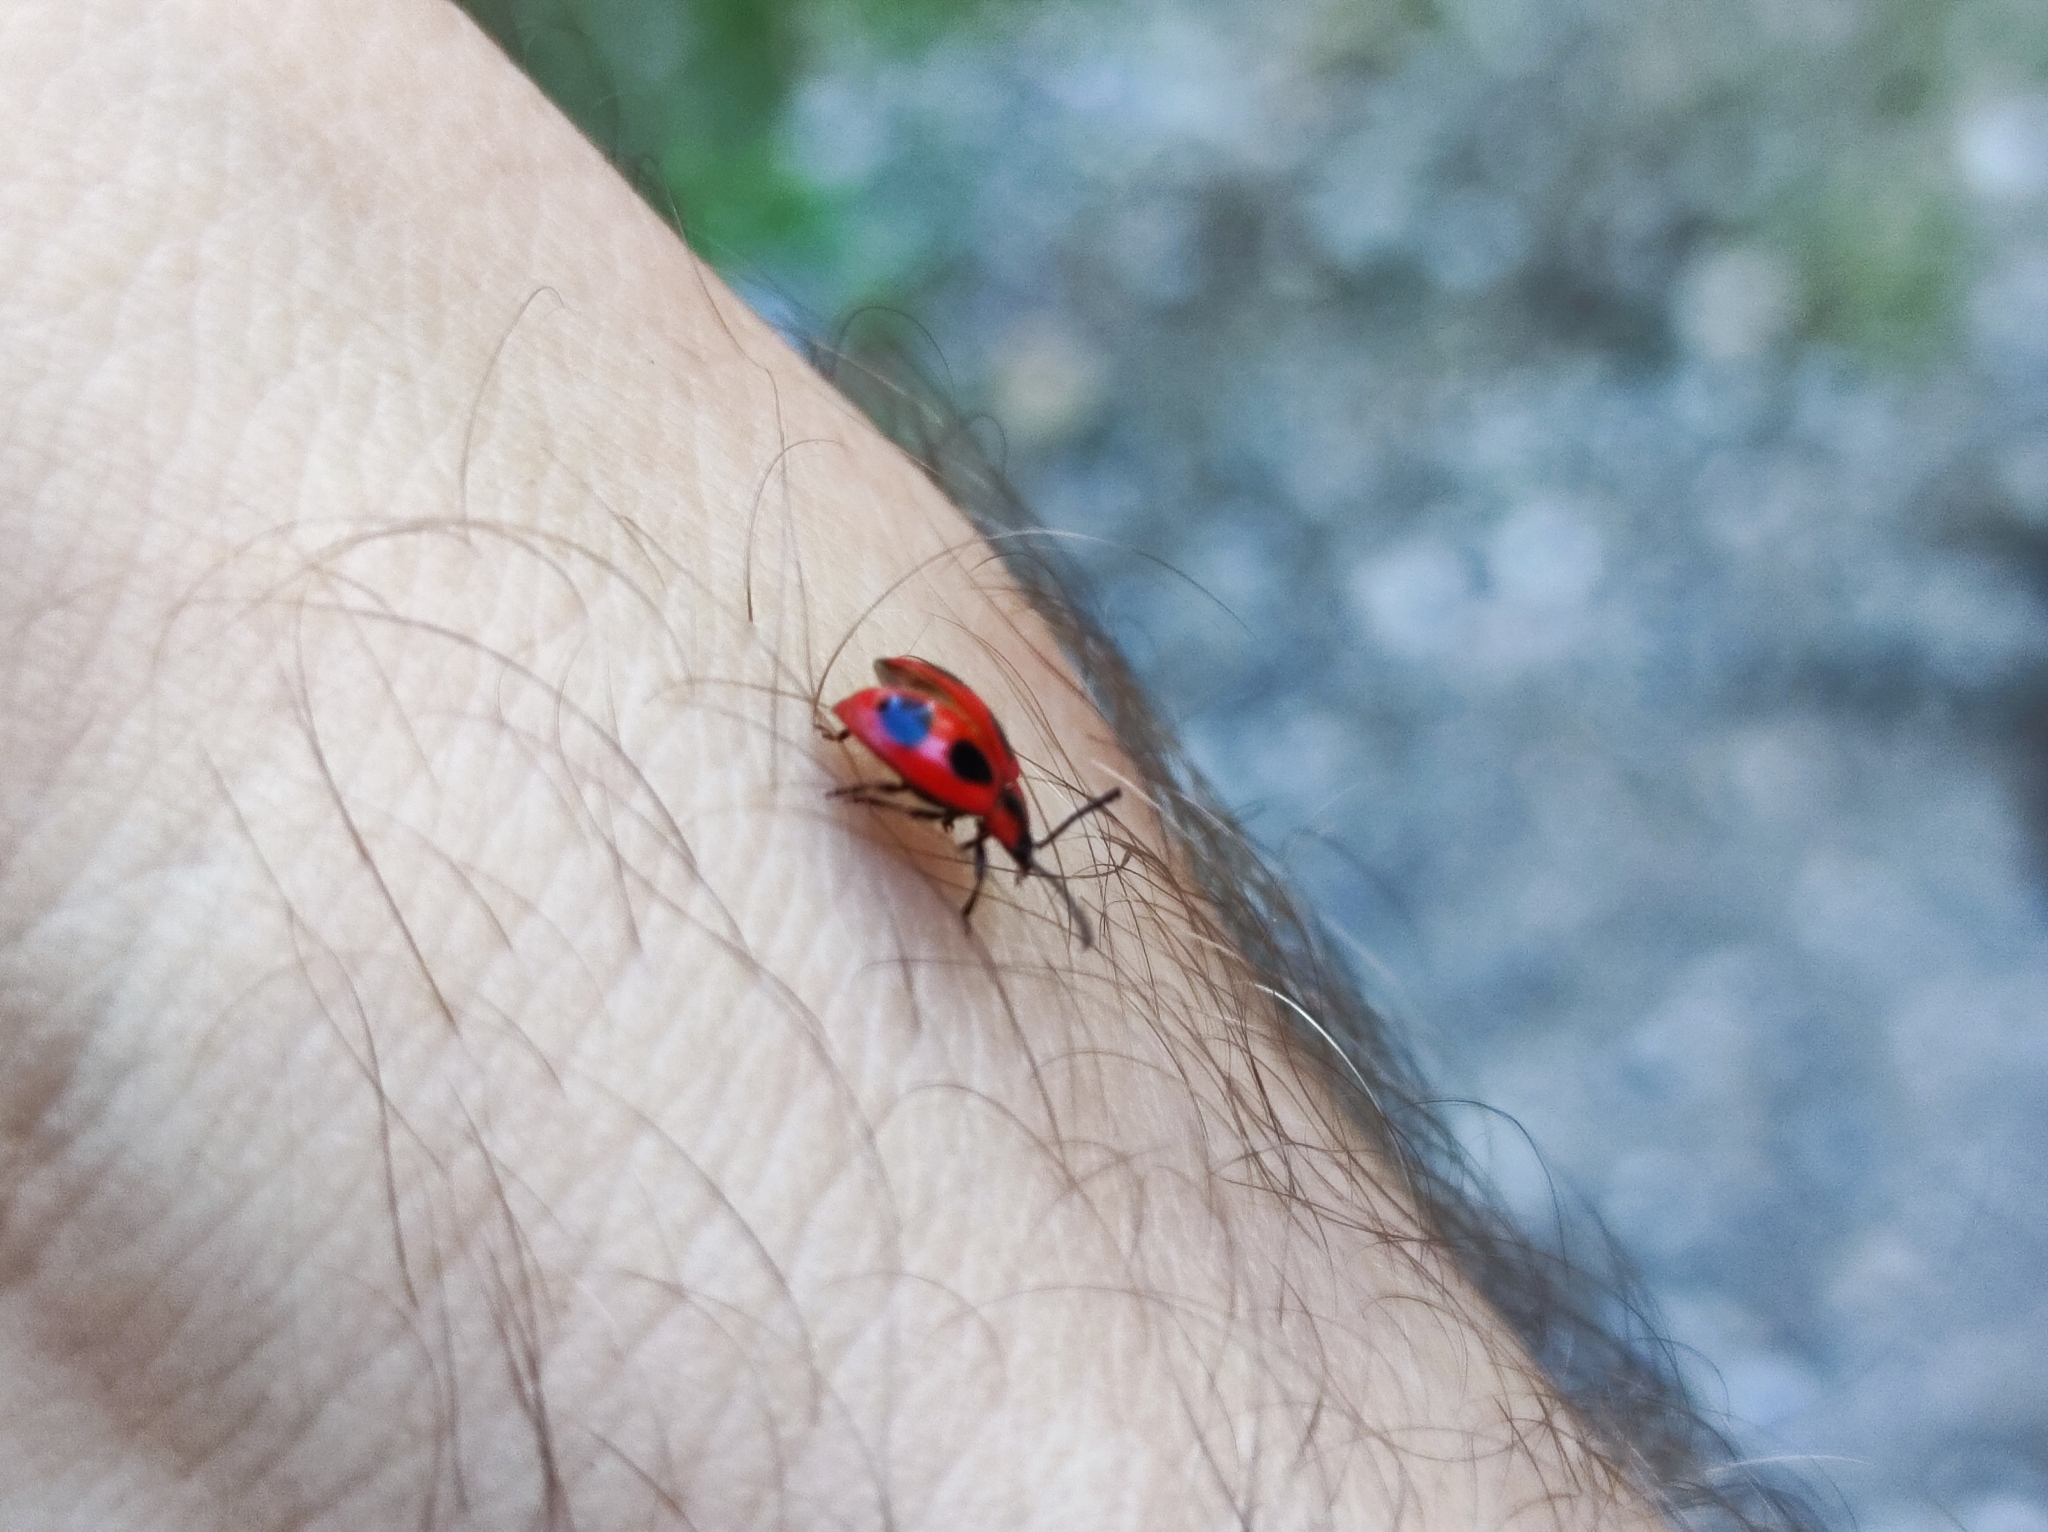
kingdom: Animalia
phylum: Arthropoda
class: Insecta
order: Coleoptera
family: Endomychidae
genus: Endomychus
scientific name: Endomychus coccineus
